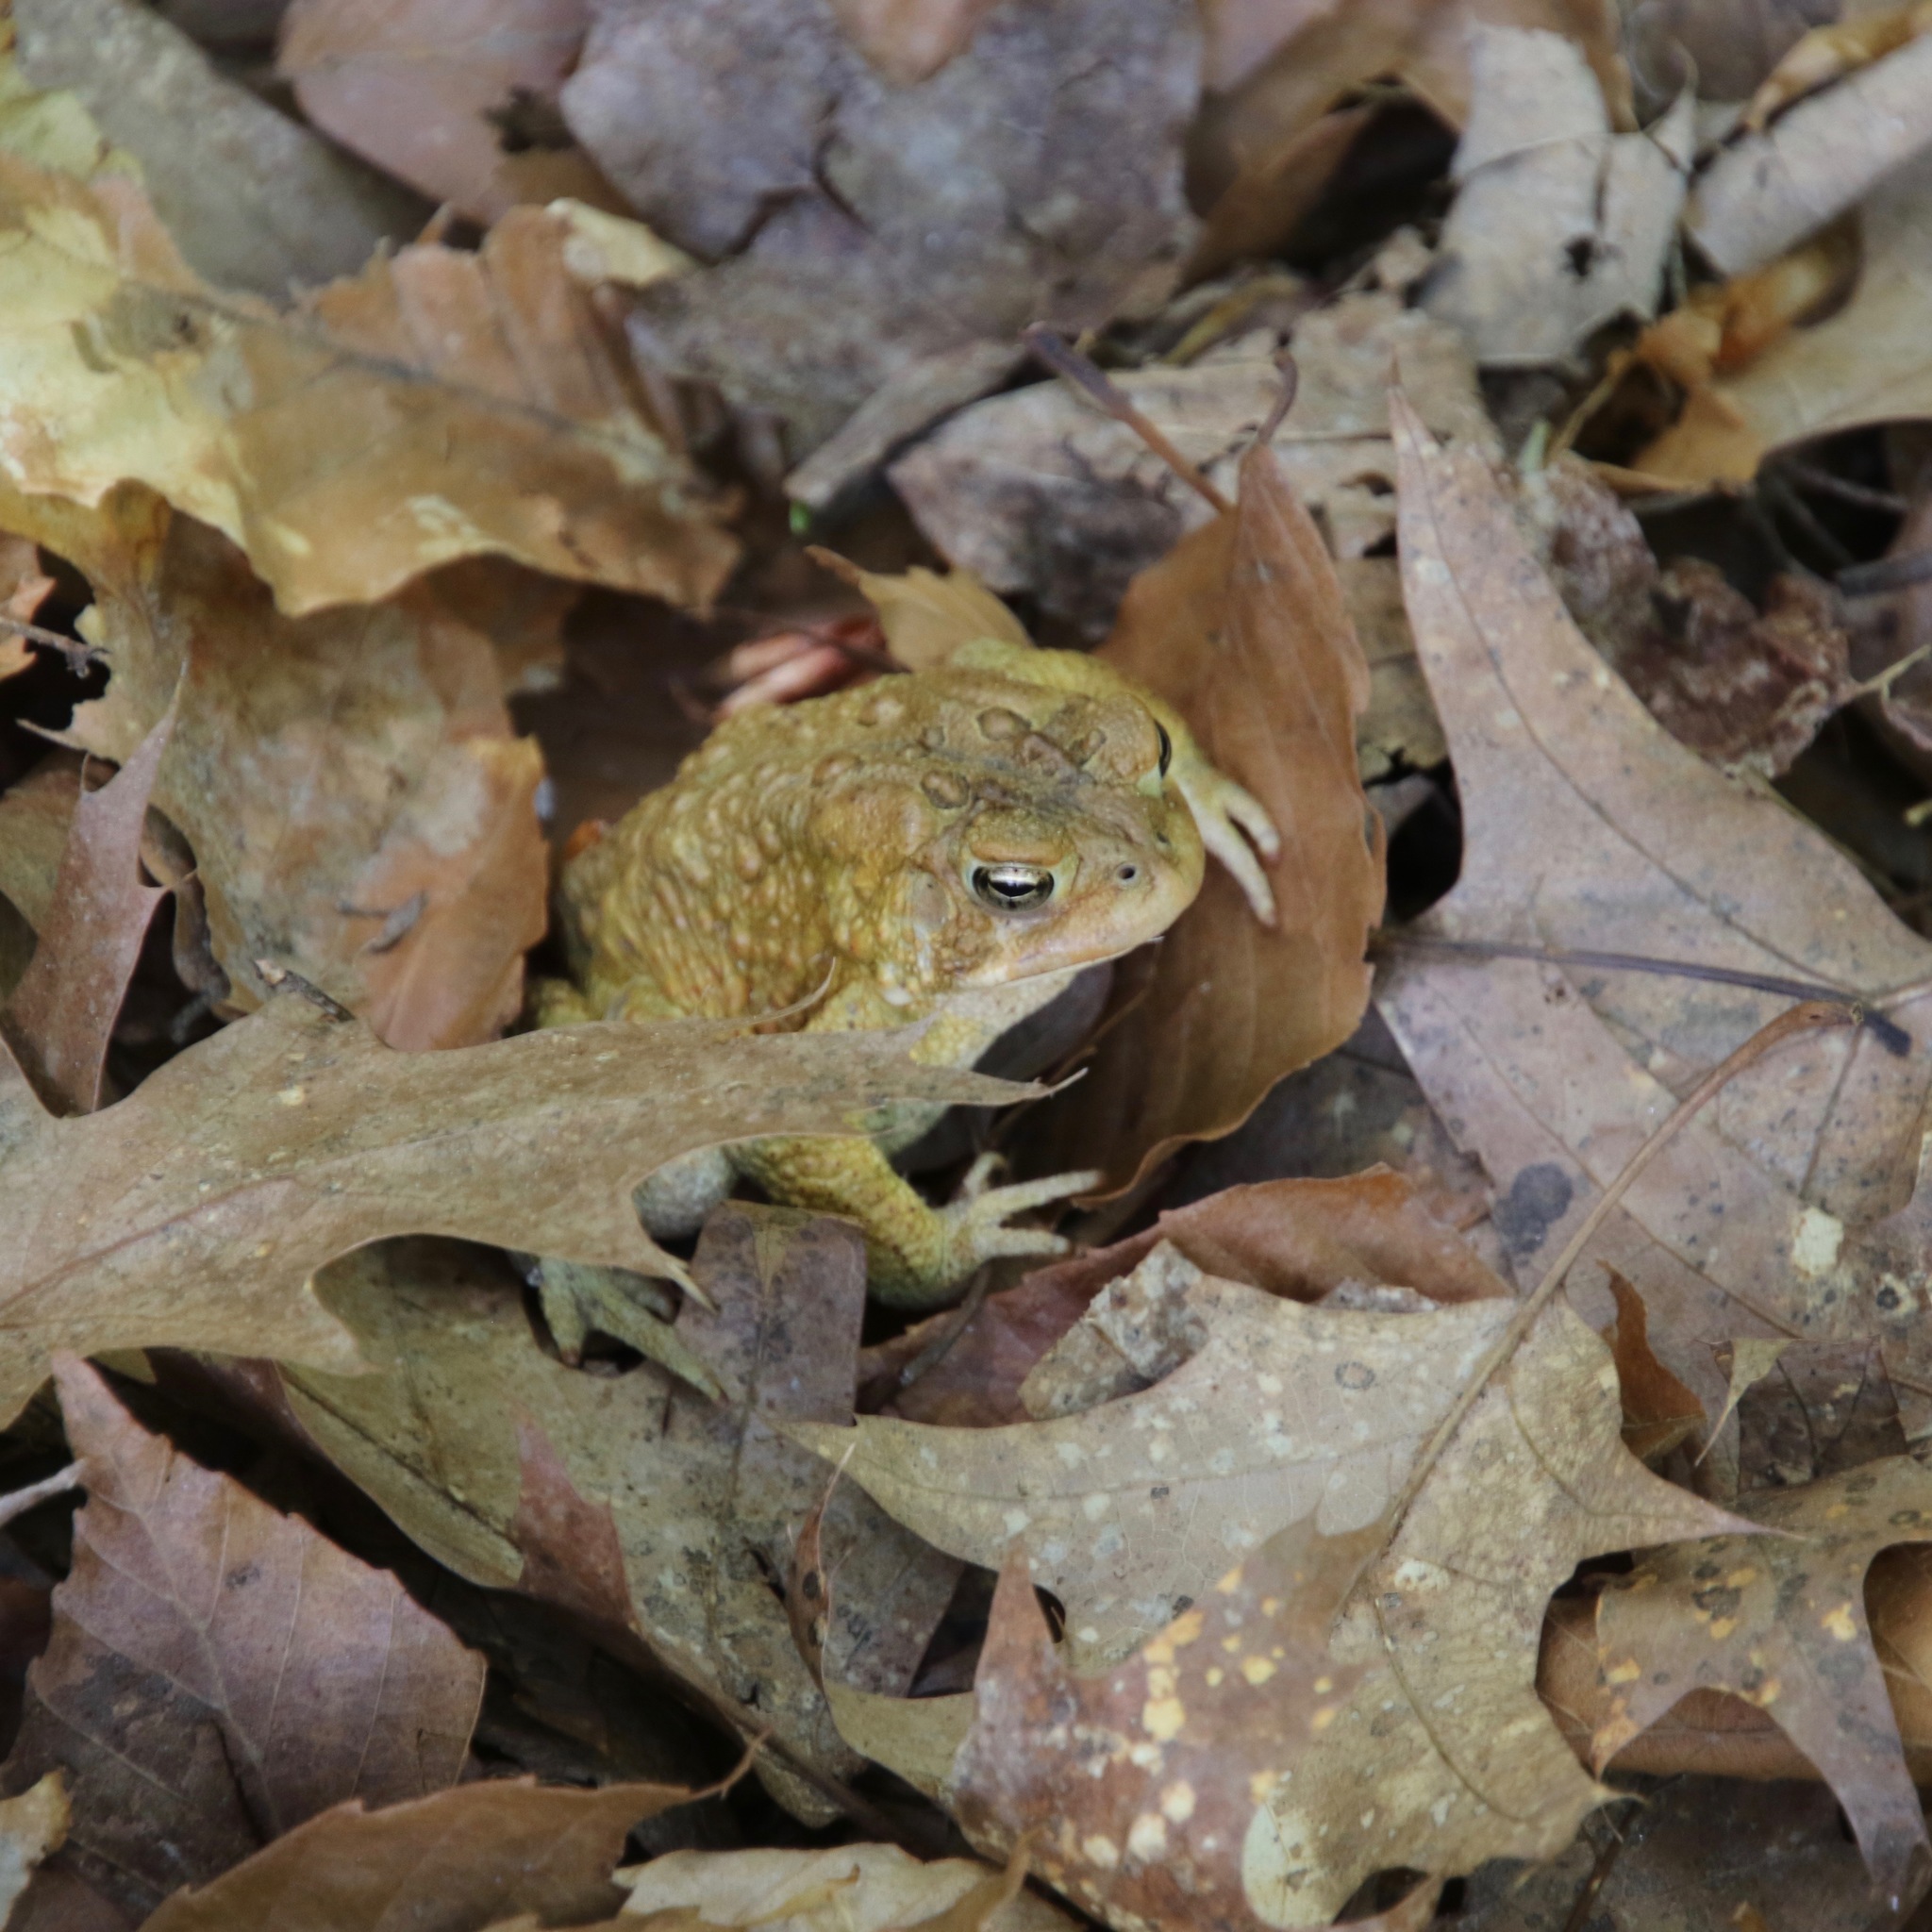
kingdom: Animalia
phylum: Chordata
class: Amphibia
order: Anura
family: Bufonidae
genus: Anaxyrus
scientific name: Anaxyrus americanus
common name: American toad
